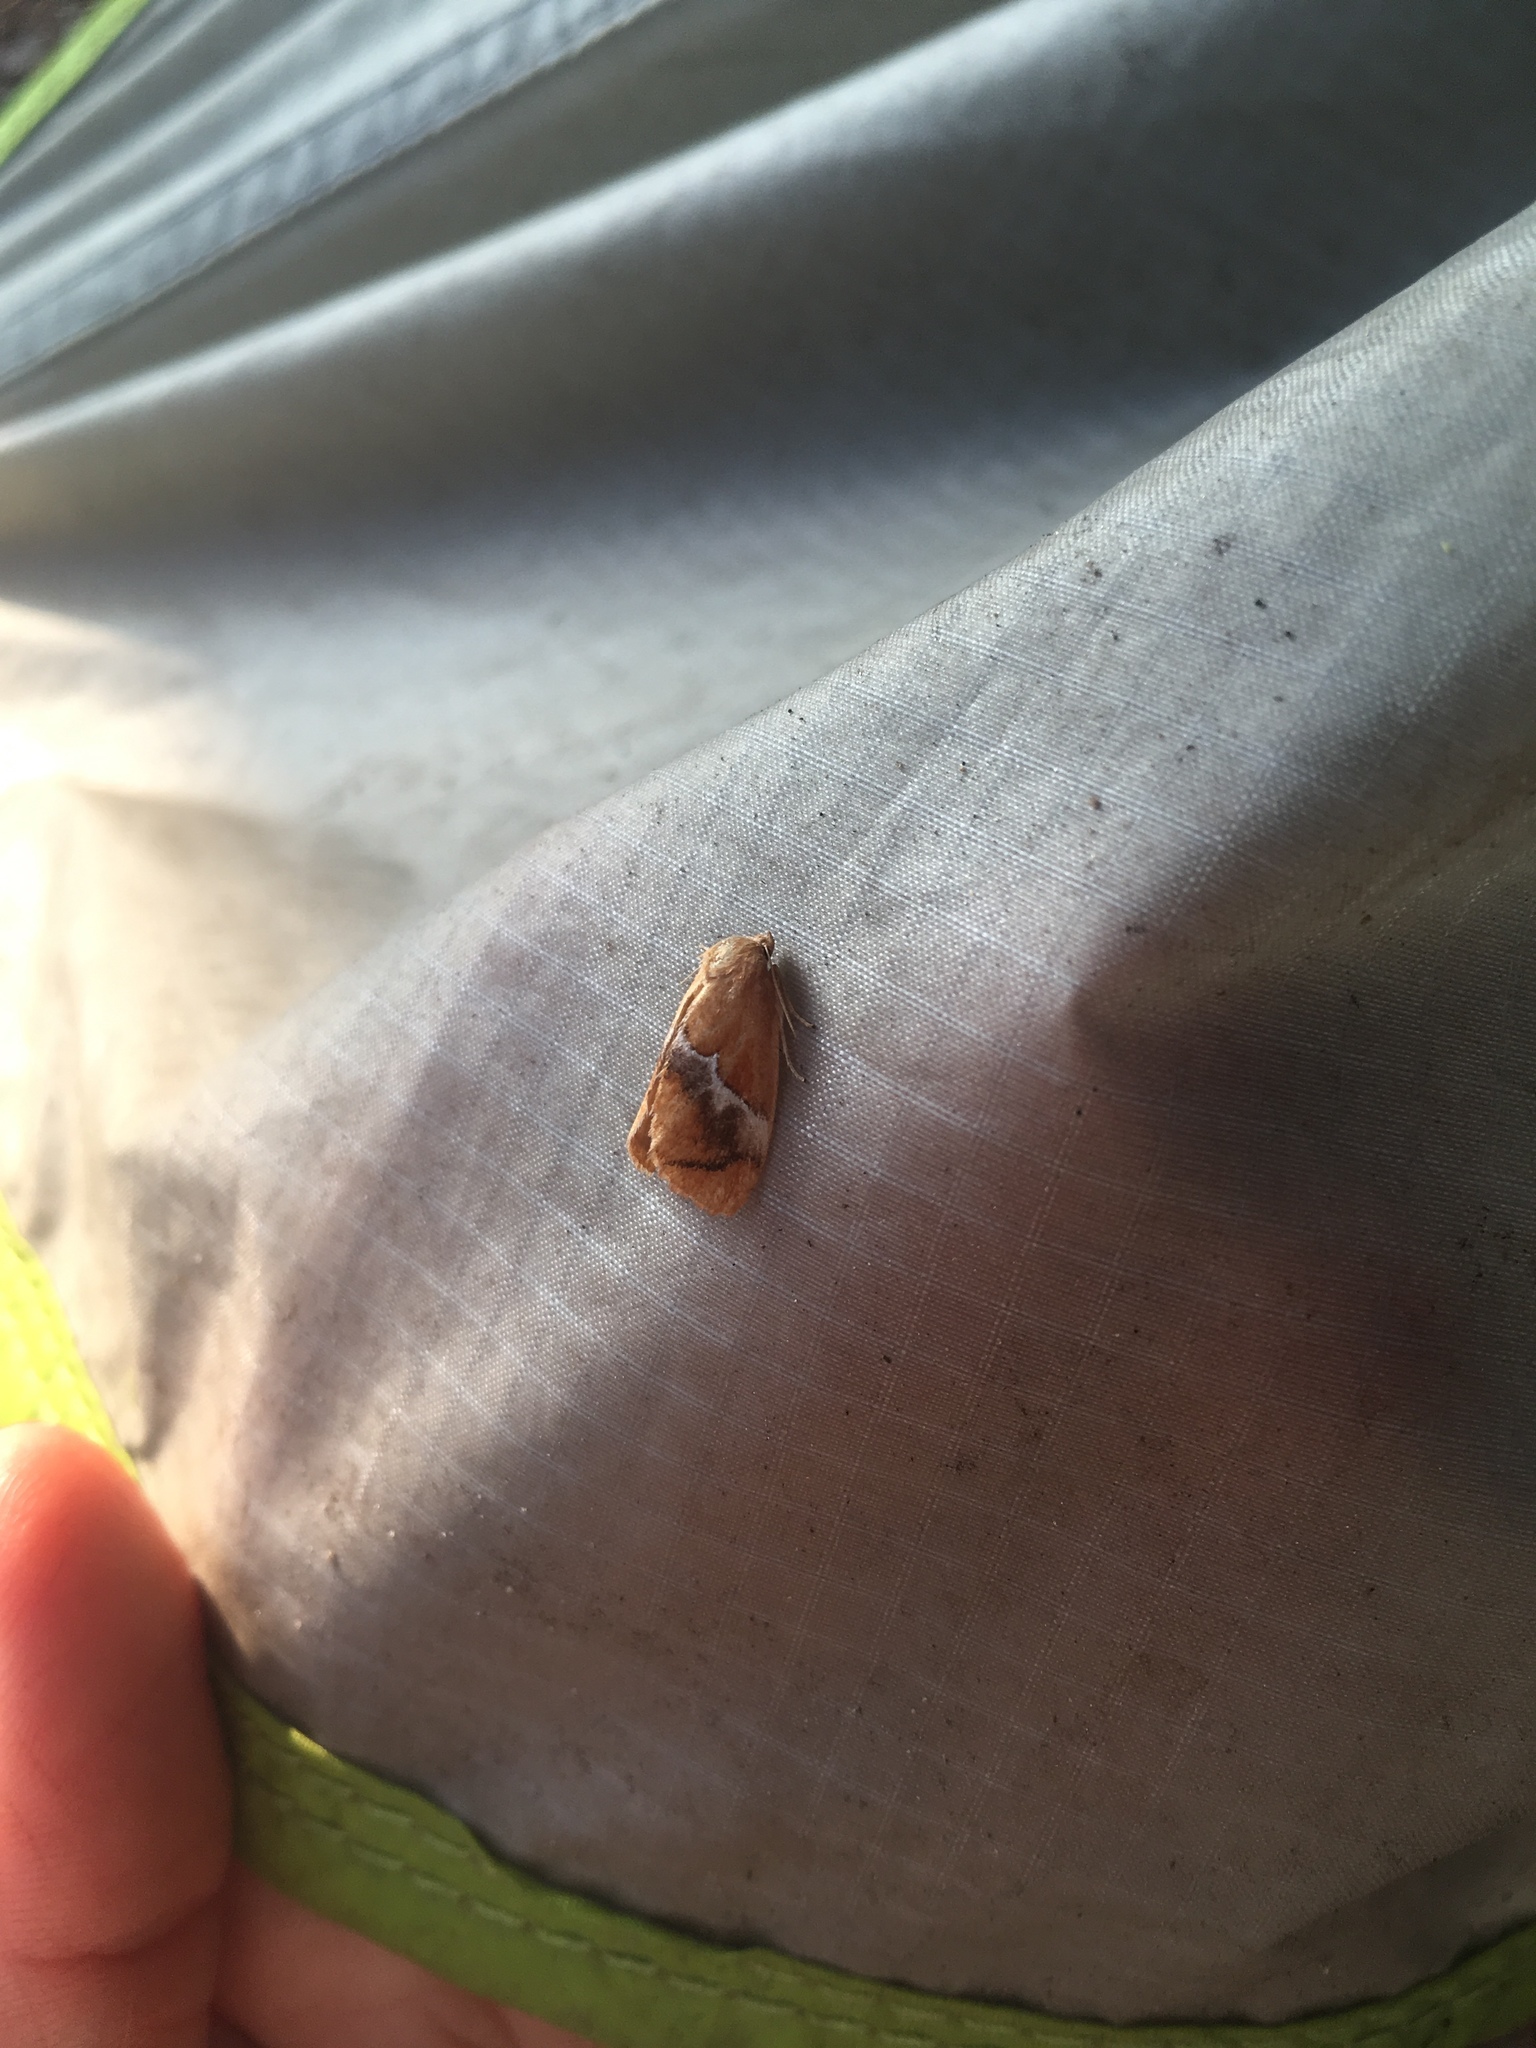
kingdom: Animalia
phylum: Arthropoda
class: Insecta
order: Lepidoptera
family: Limacodidae
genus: Lithacodes
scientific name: Lithacodes fasciola
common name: Yellow-shouldered slug moth
